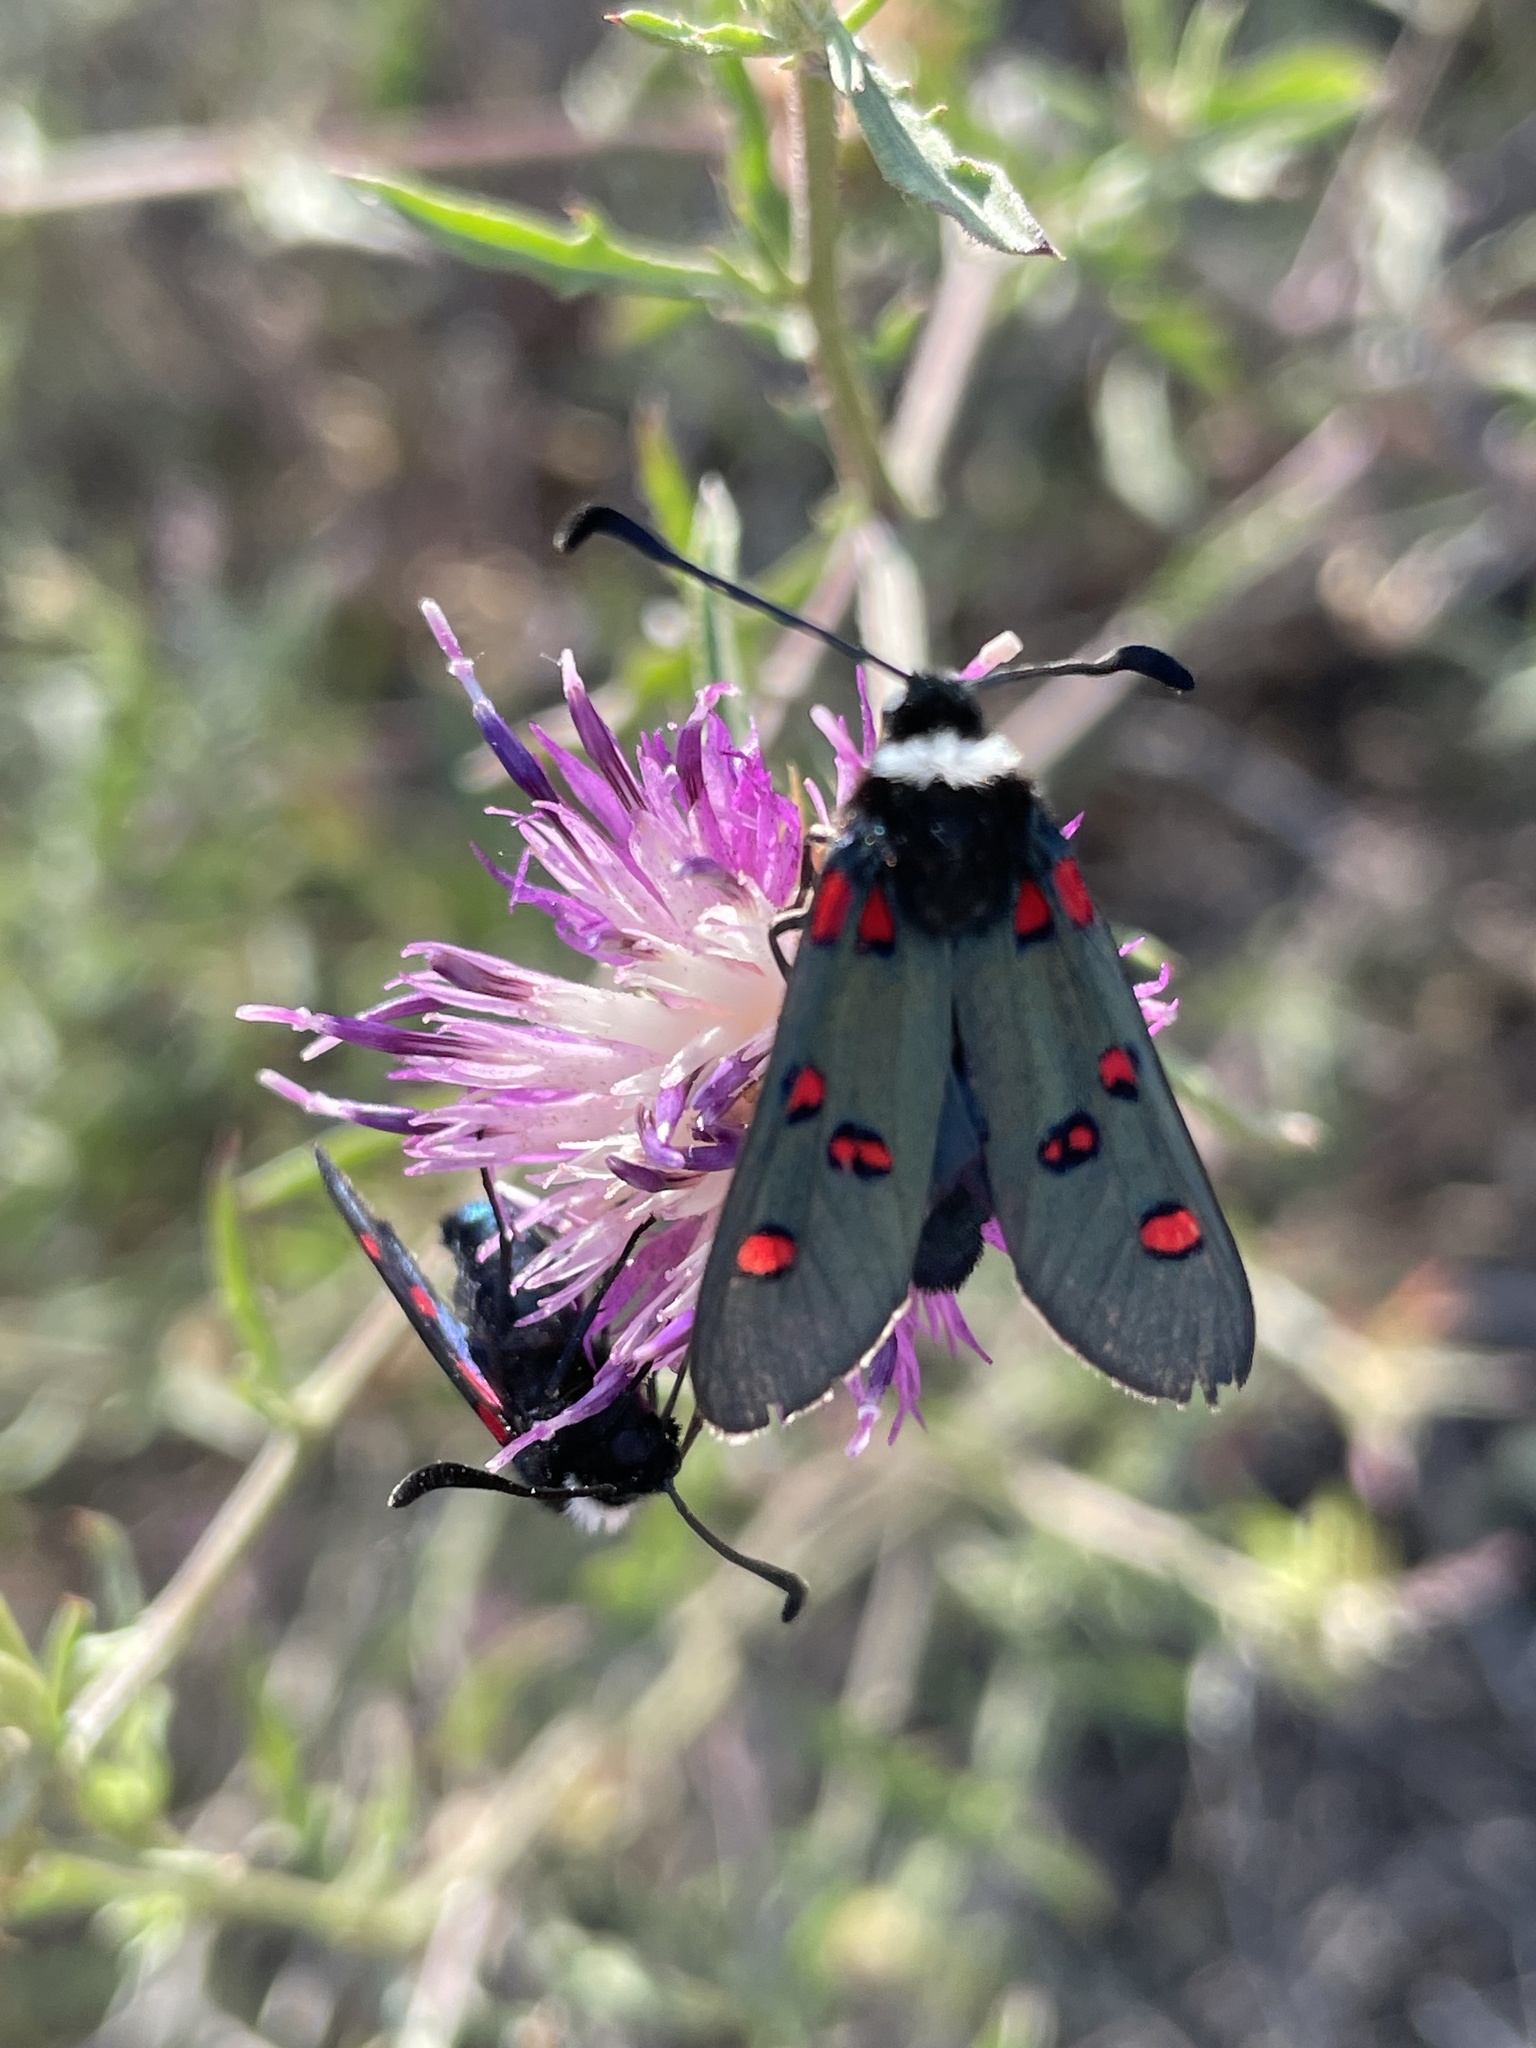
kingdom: Animalia
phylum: Arthropoda
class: Insecta
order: Lepidoptera
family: Zygaenidae
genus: Zygaena
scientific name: Zygaena lavandulae
